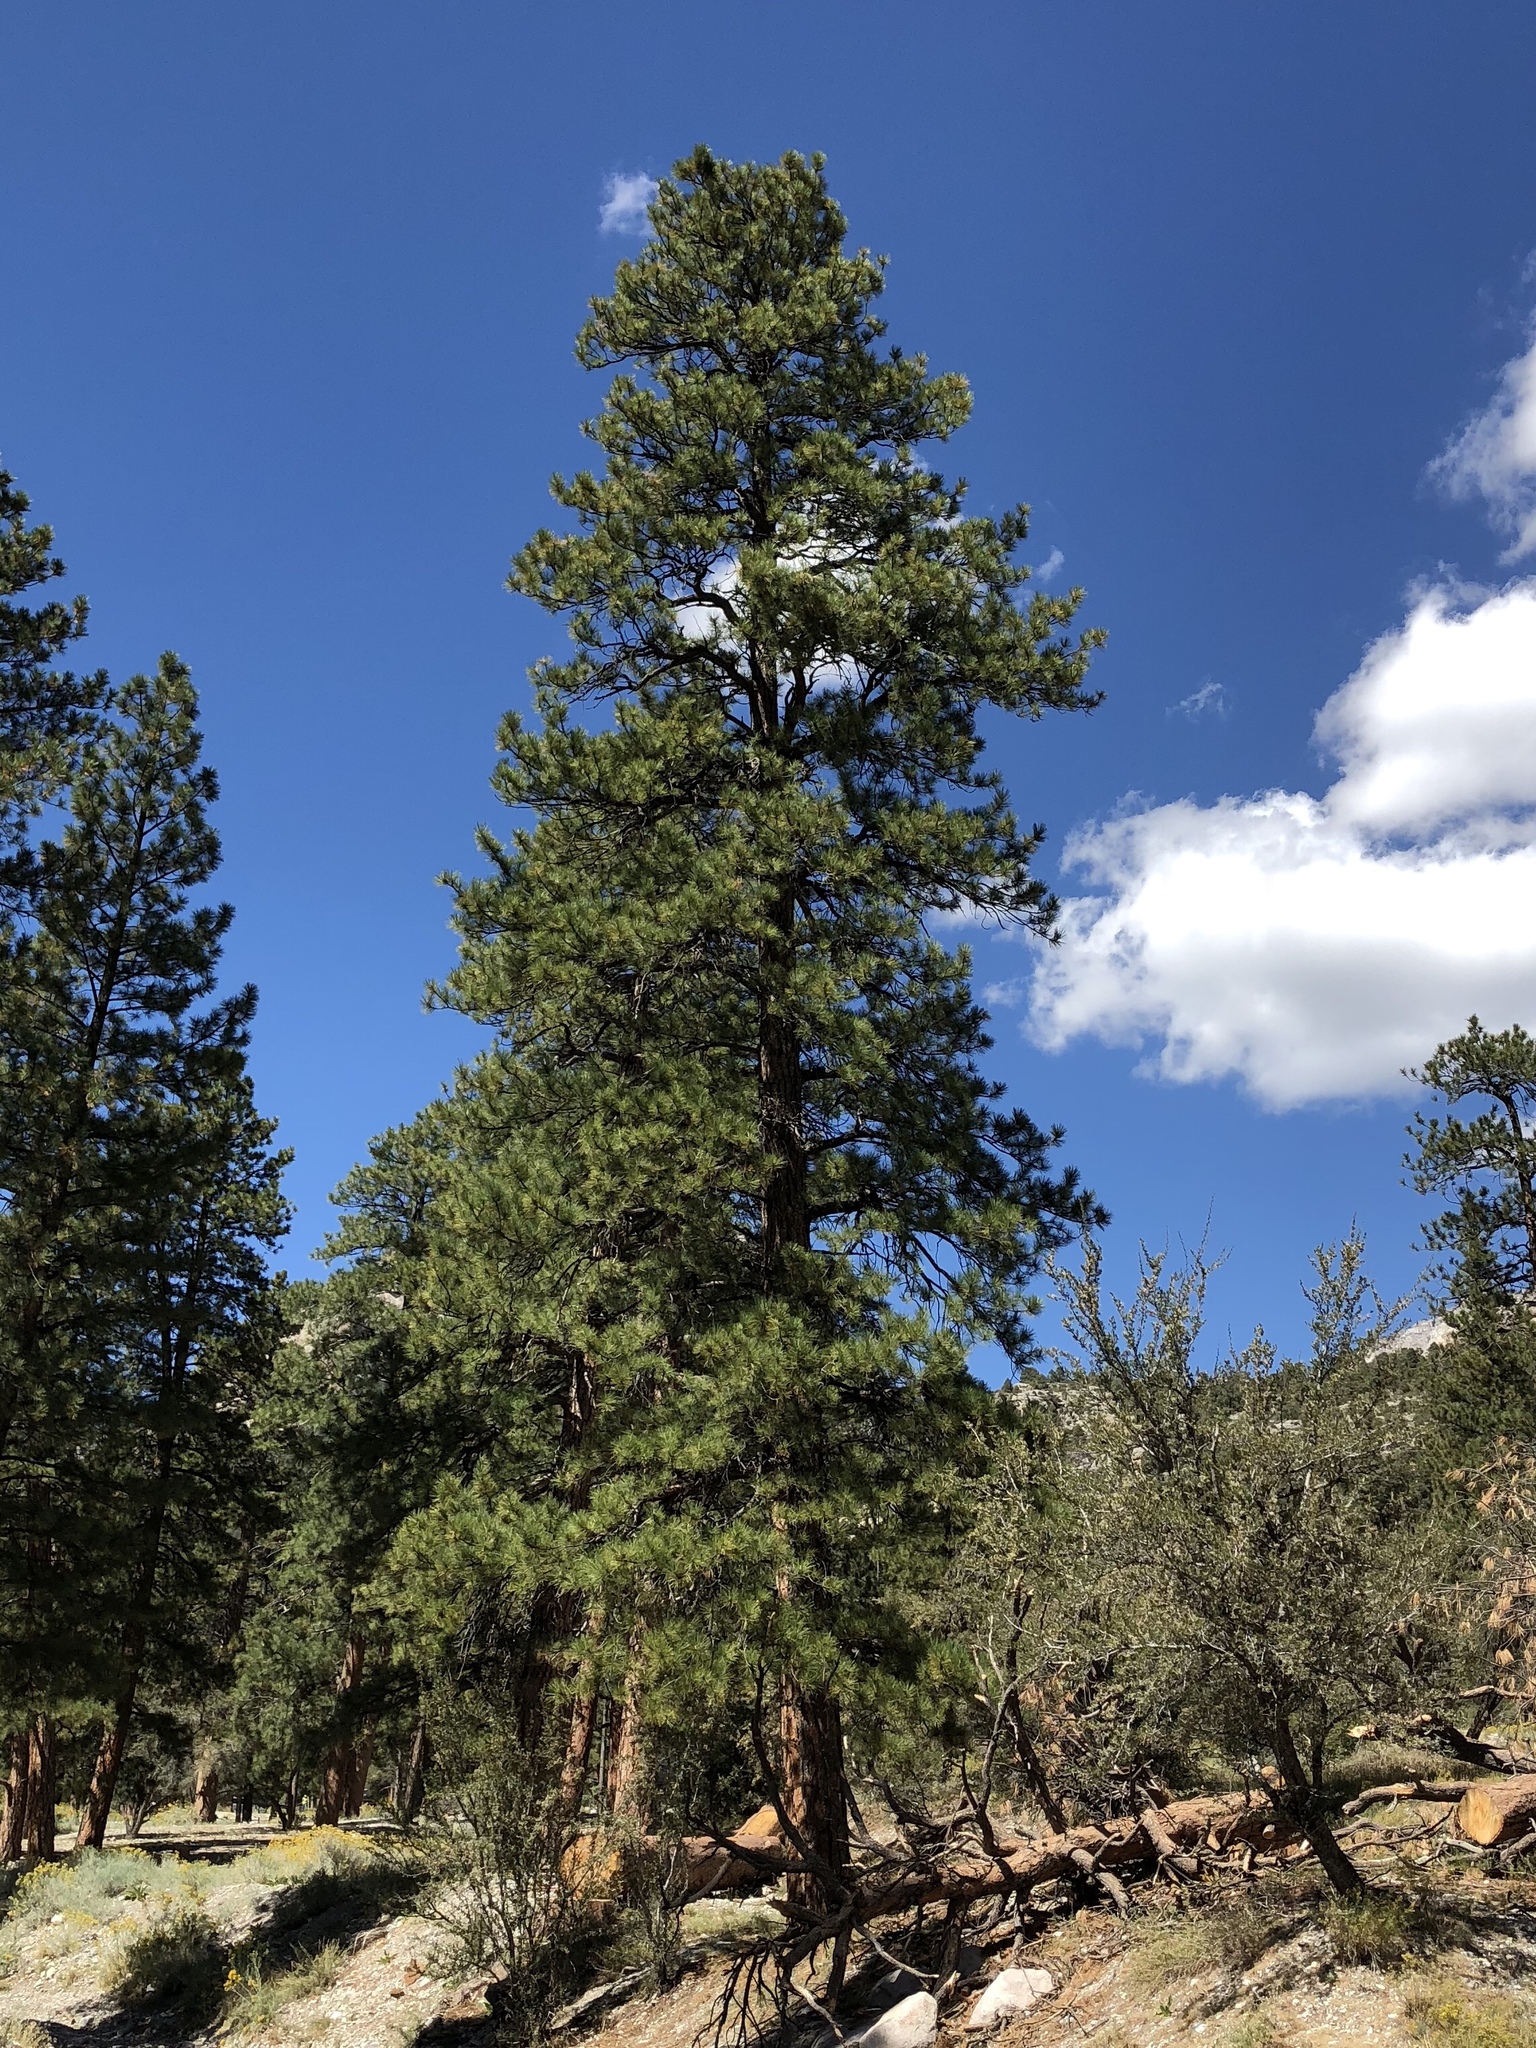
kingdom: Plantae
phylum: Tracheophyta
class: Pinopsida
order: Pinales
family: Pinaceae
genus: Pinus
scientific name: Pinus ponderosa
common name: Western yellow-pine
